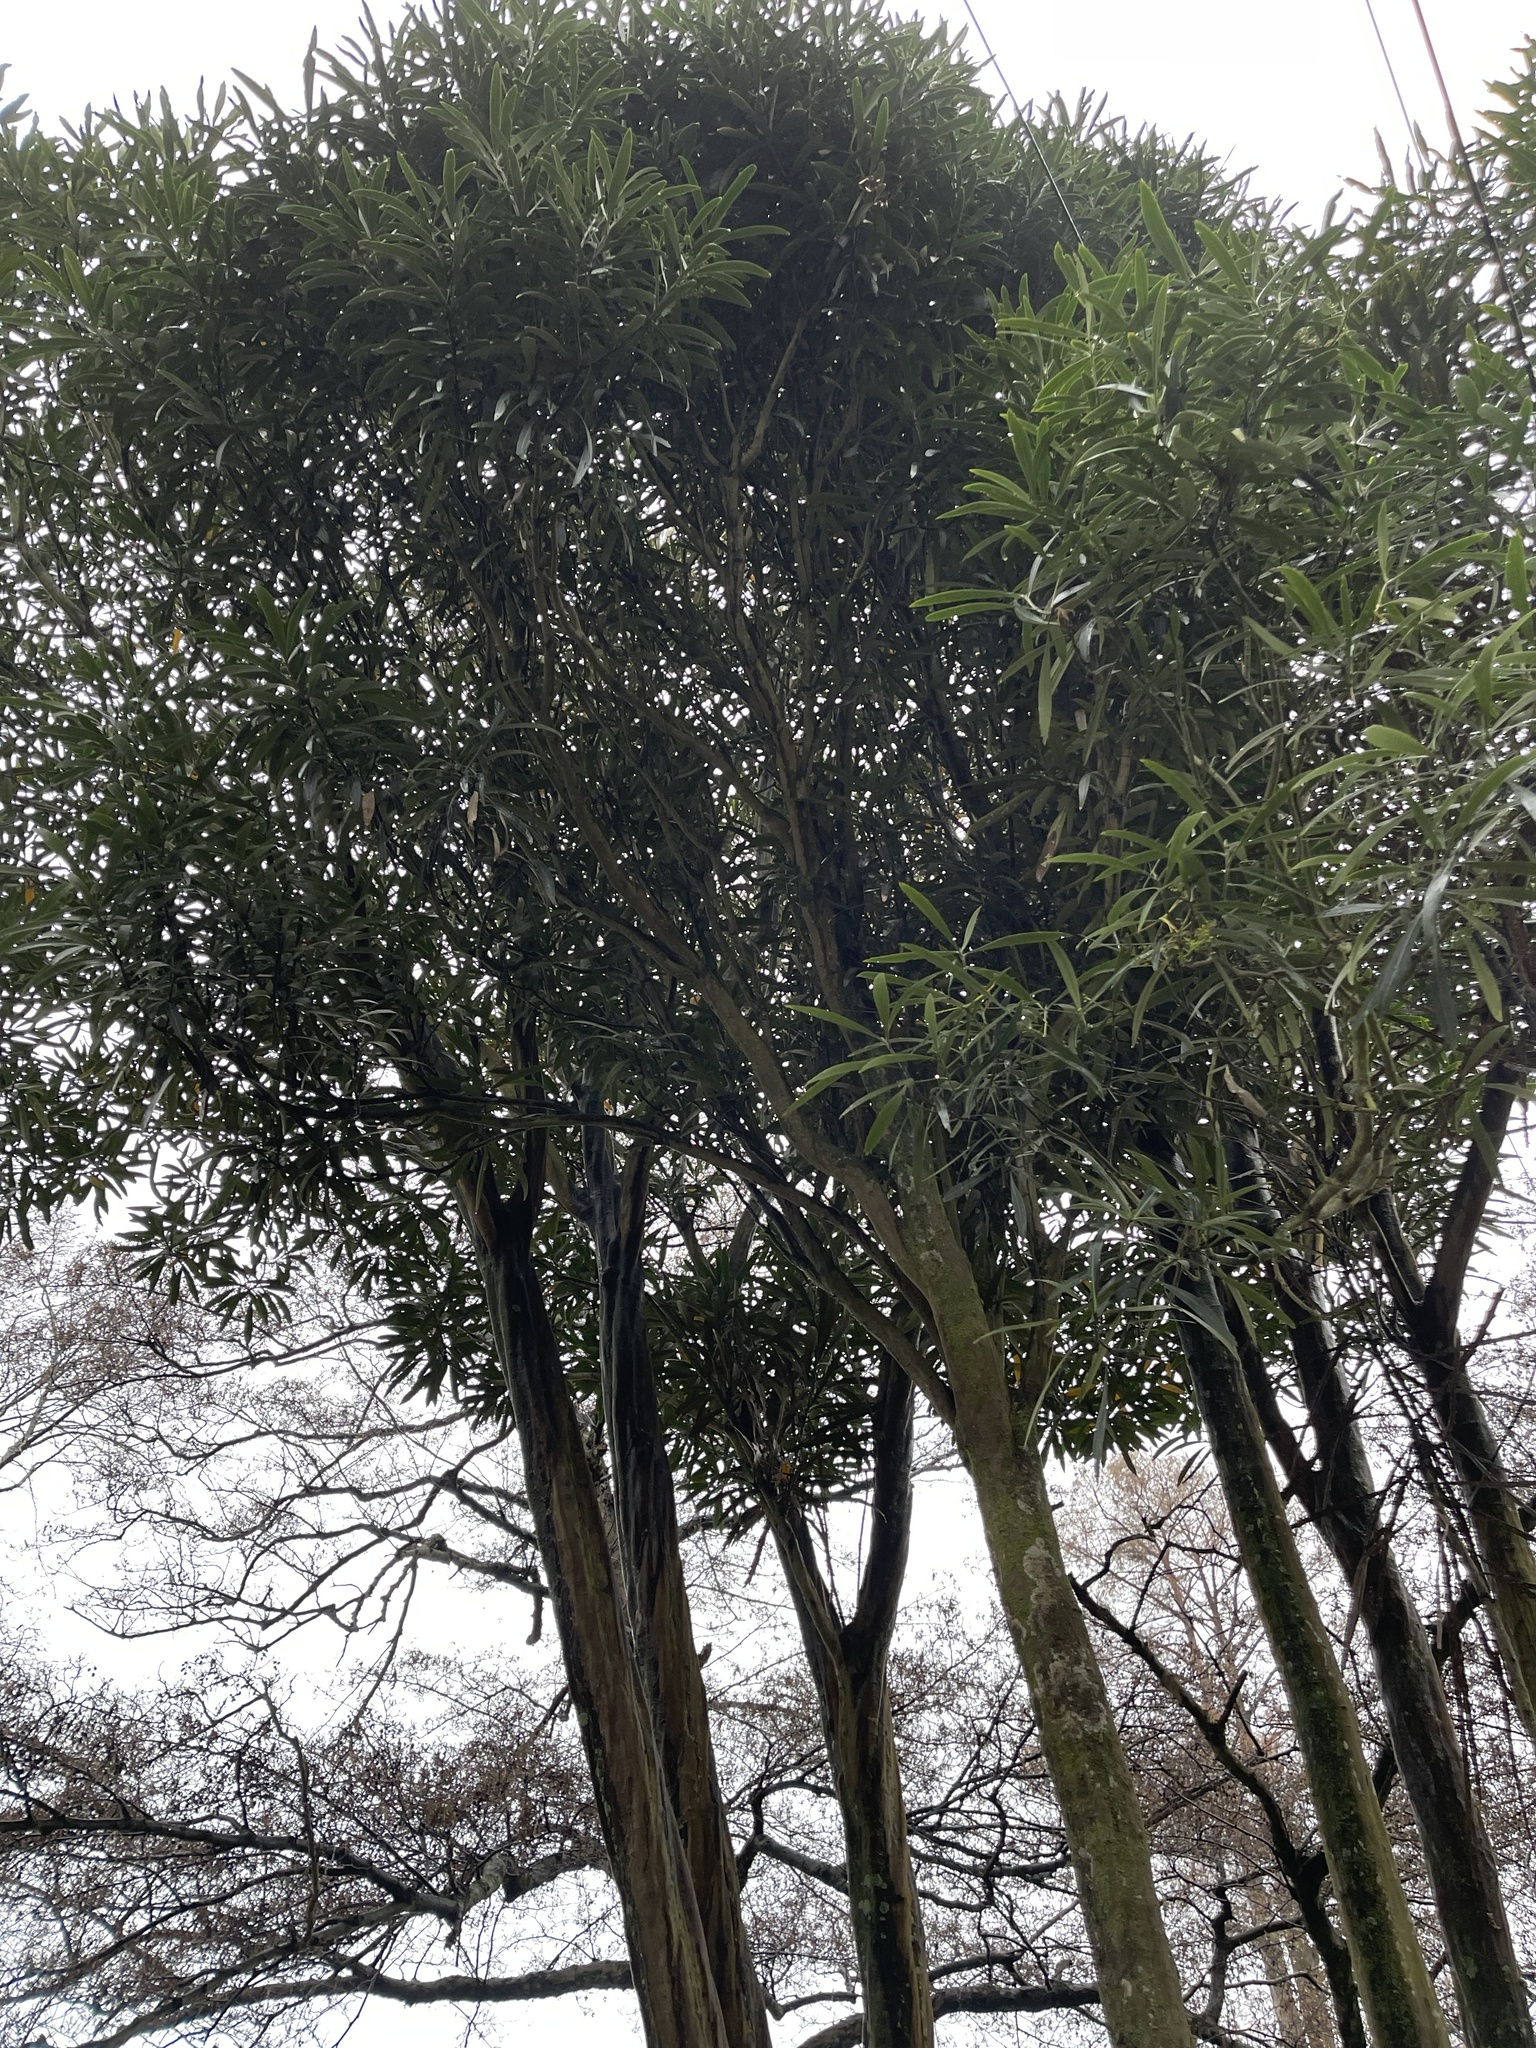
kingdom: Plantae
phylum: Tracheophyta
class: Magnoliopsida
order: Apiales
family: Araliaceae
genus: Pseudopanax
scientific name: Pseudopanax crassifolius
